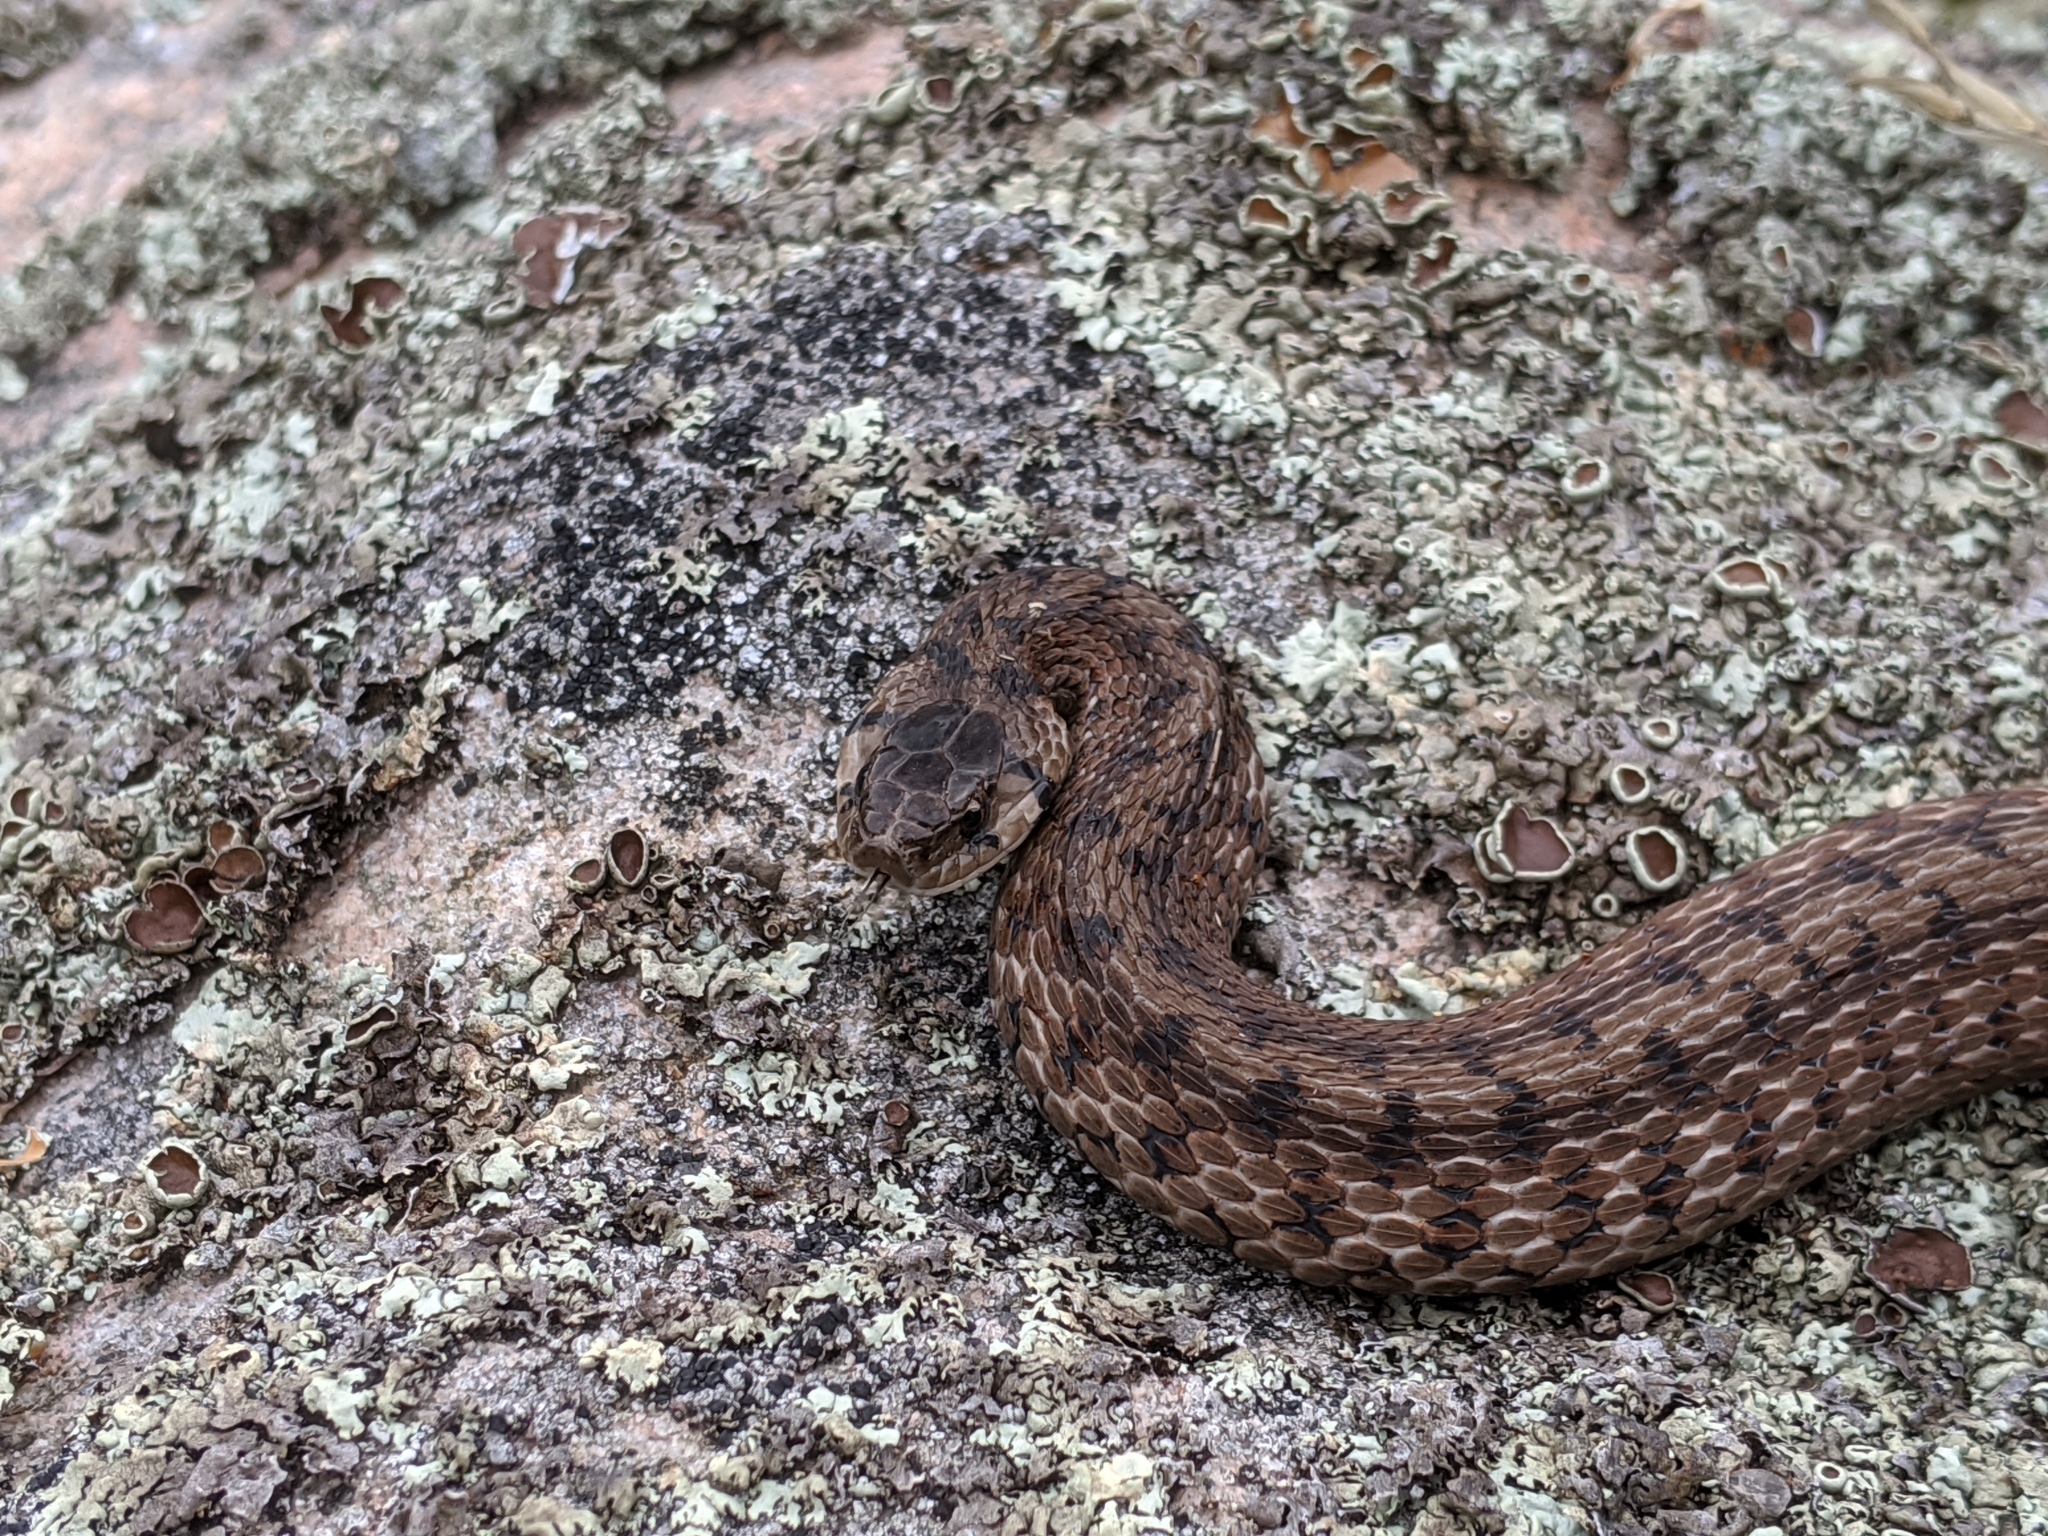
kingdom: Animalia
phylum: Chordata
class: Squamata
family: Colubridae
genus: Storeria
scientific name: Storeria dekayi
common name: (dekay’s) brown snake
